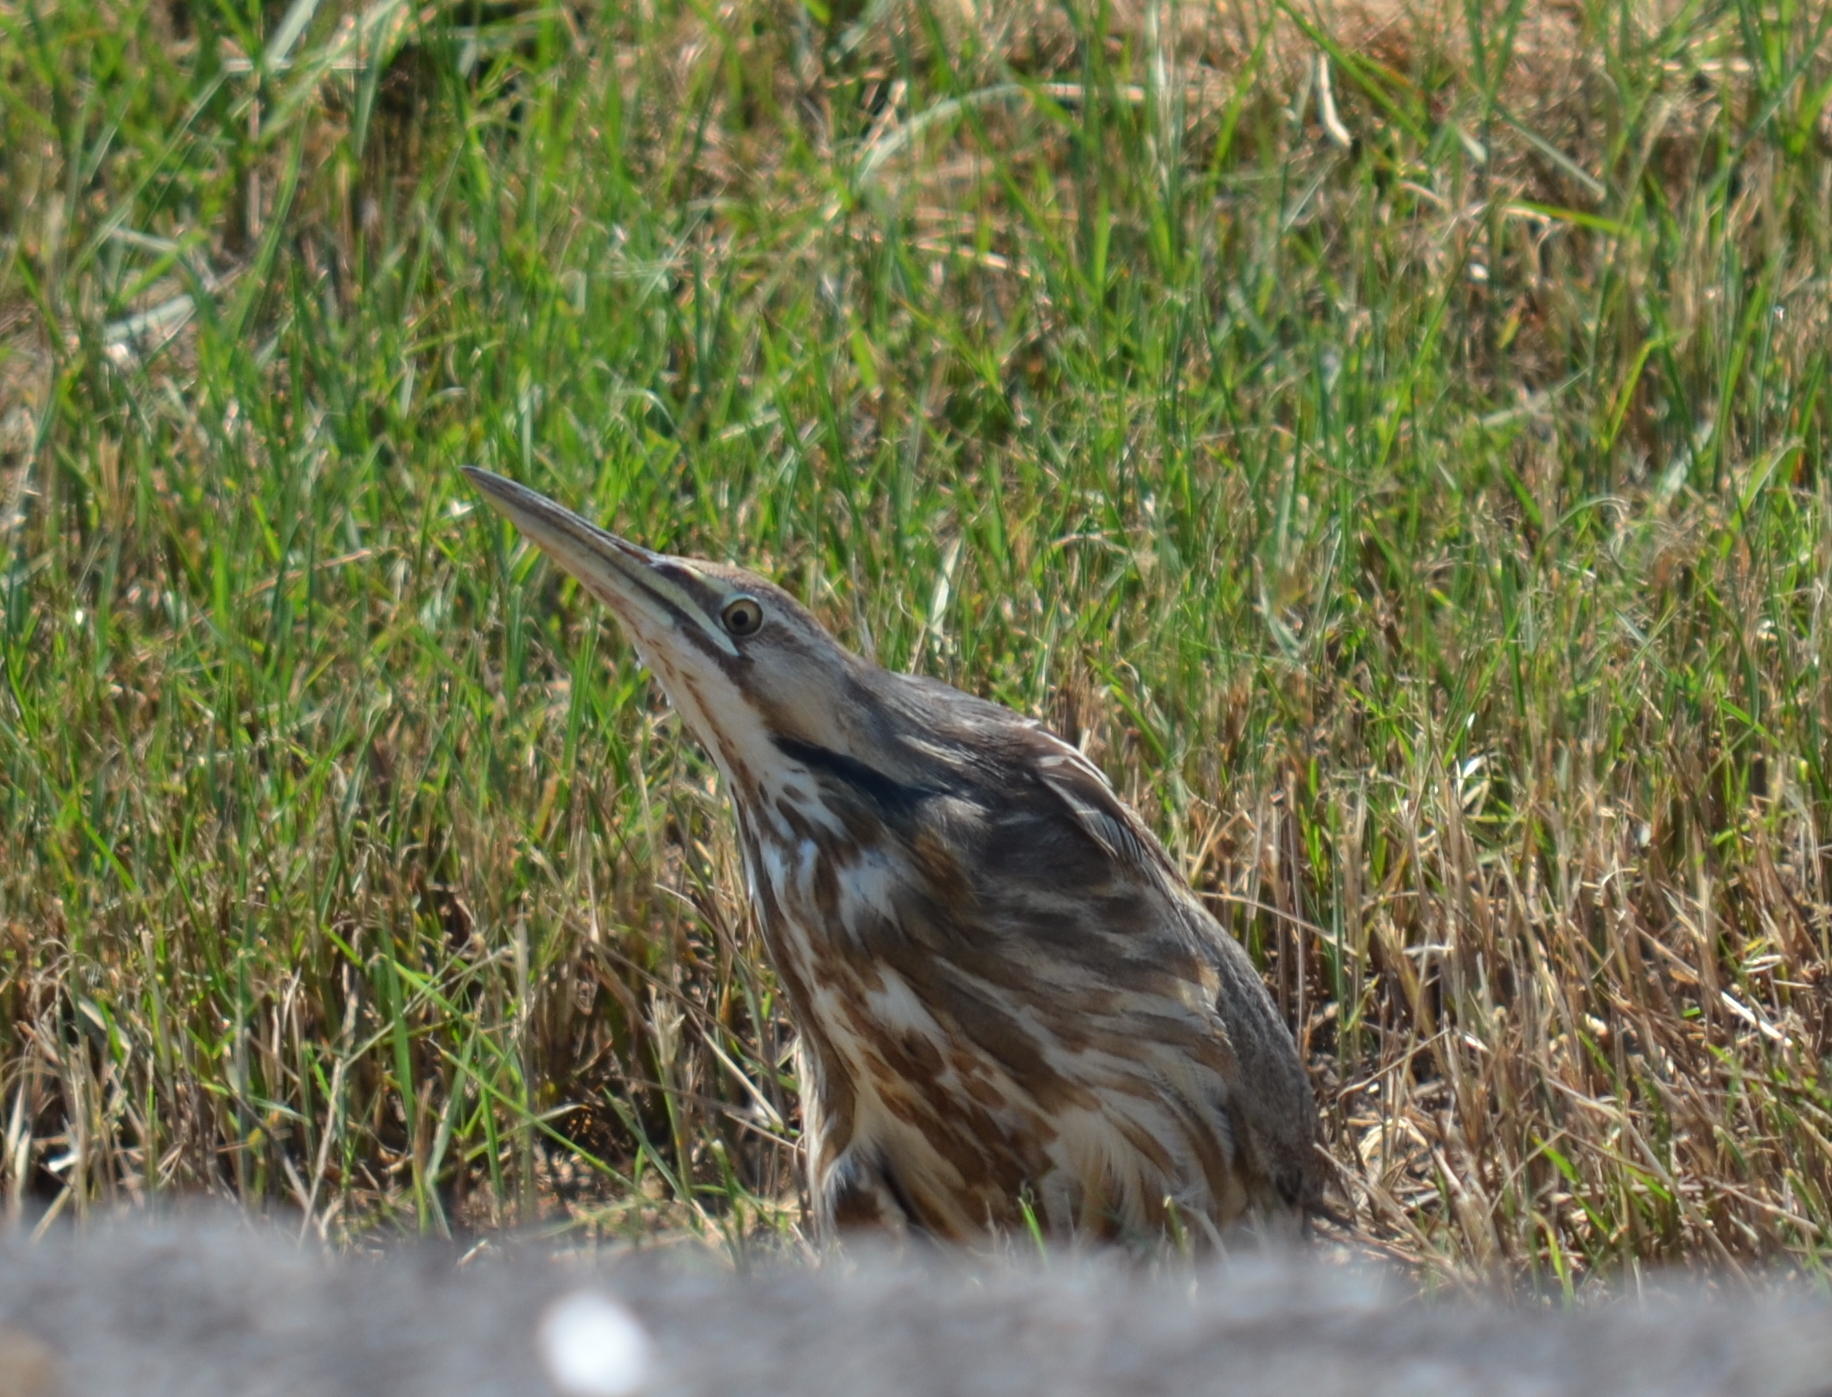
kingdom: Animalia
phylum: Chordata
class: Aves
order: Pelecaniformes
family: Ardeidae
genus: Botaurus
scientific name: Botaurus lentiginosus
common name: American bittern
